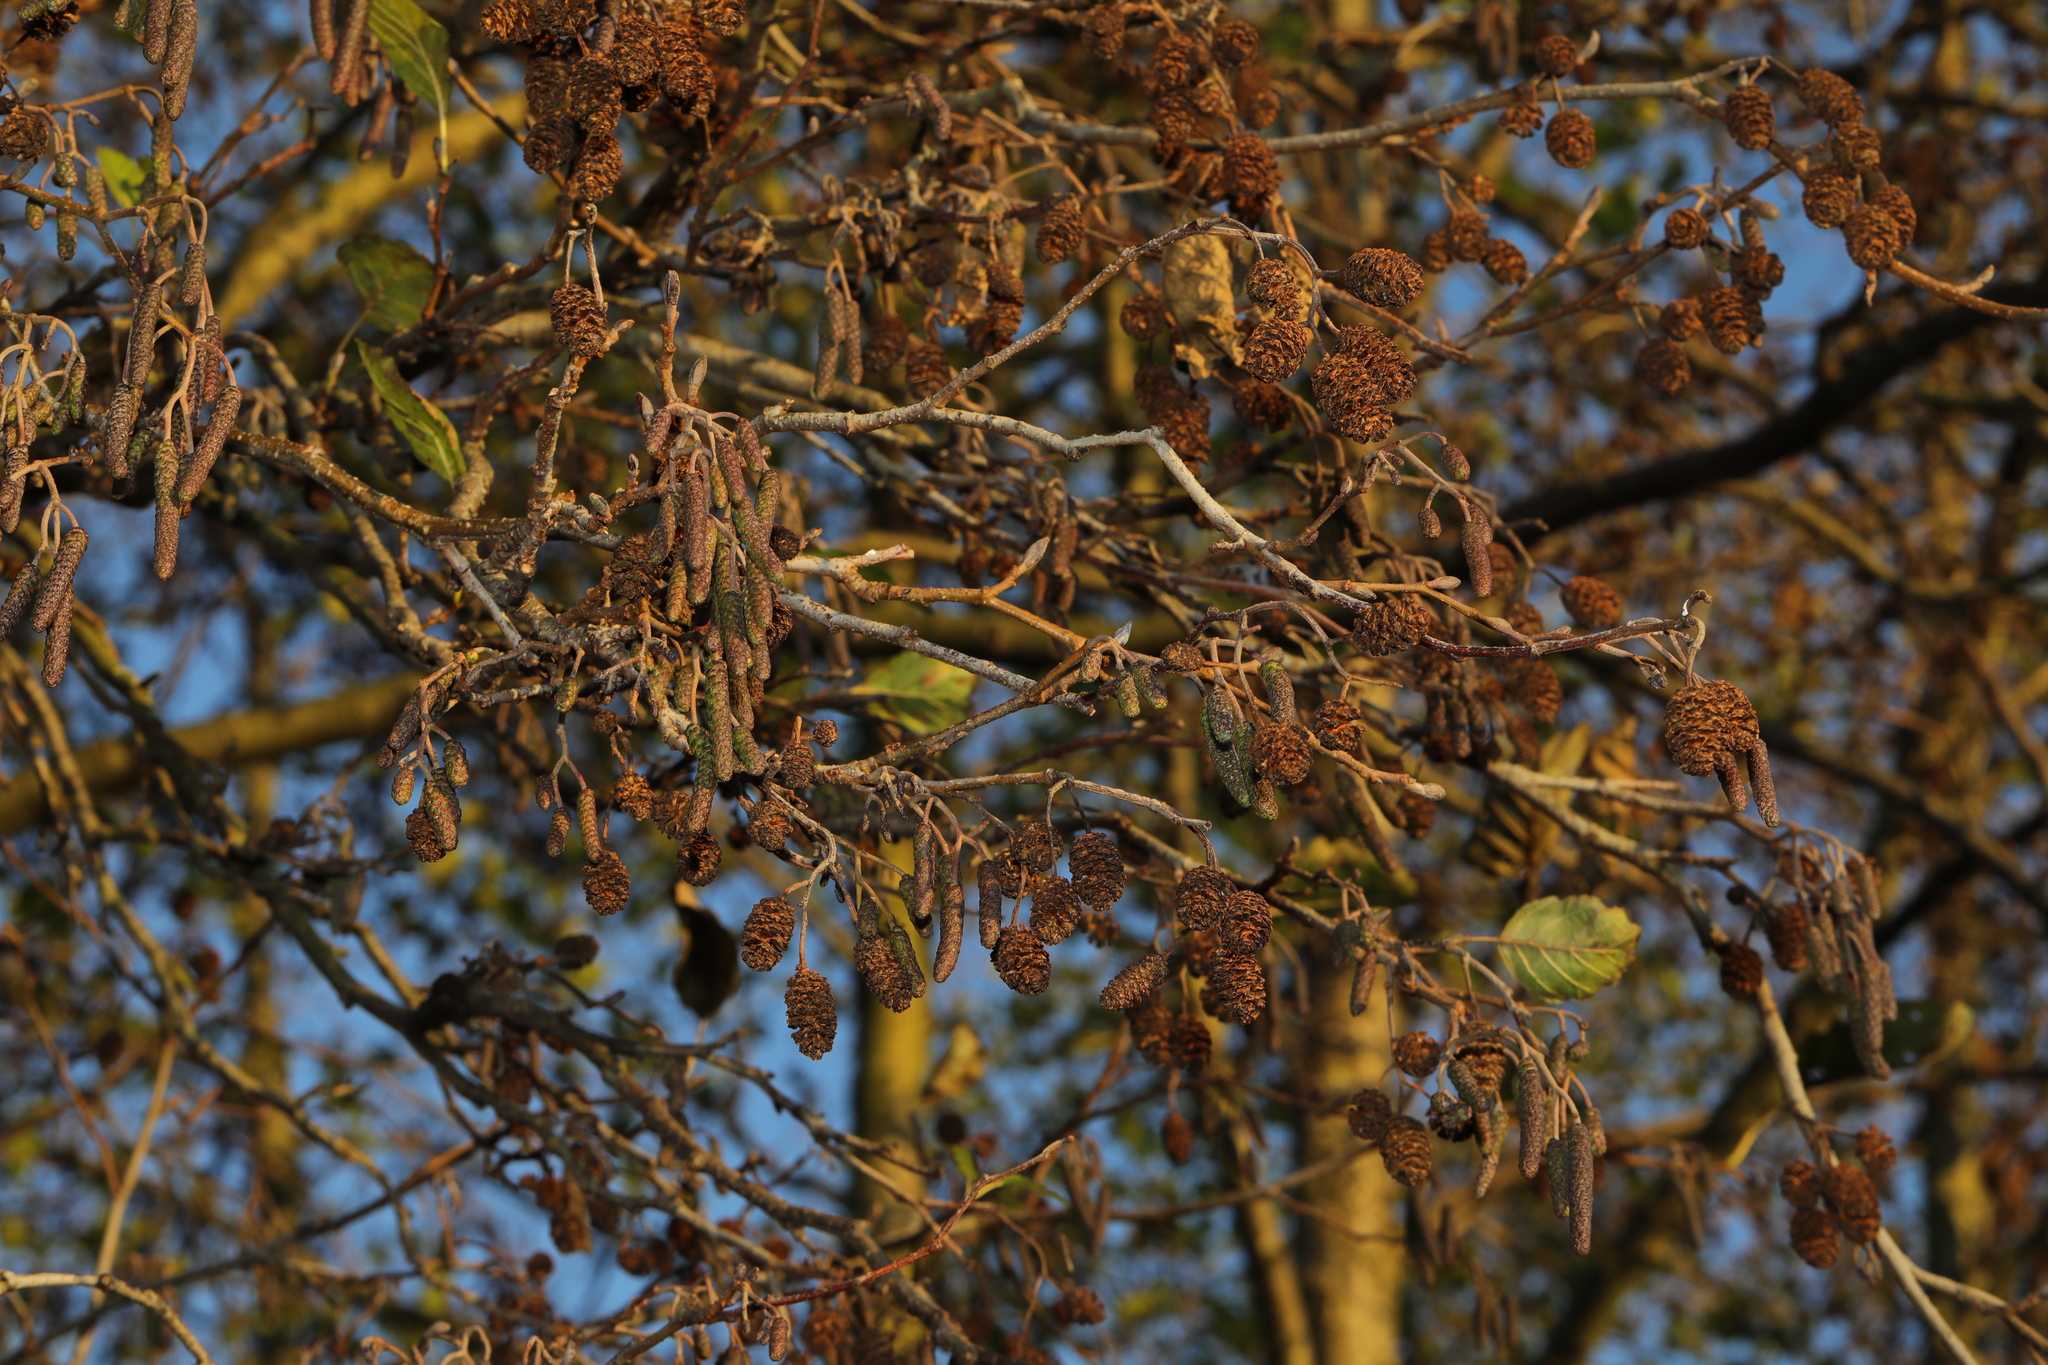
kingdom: Plantae
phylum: Tracheophyta
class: Magnoliopsida
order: Fagales
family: Betulaceae
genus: Alnus
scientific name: Alnus glutinosa
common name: Black alder
